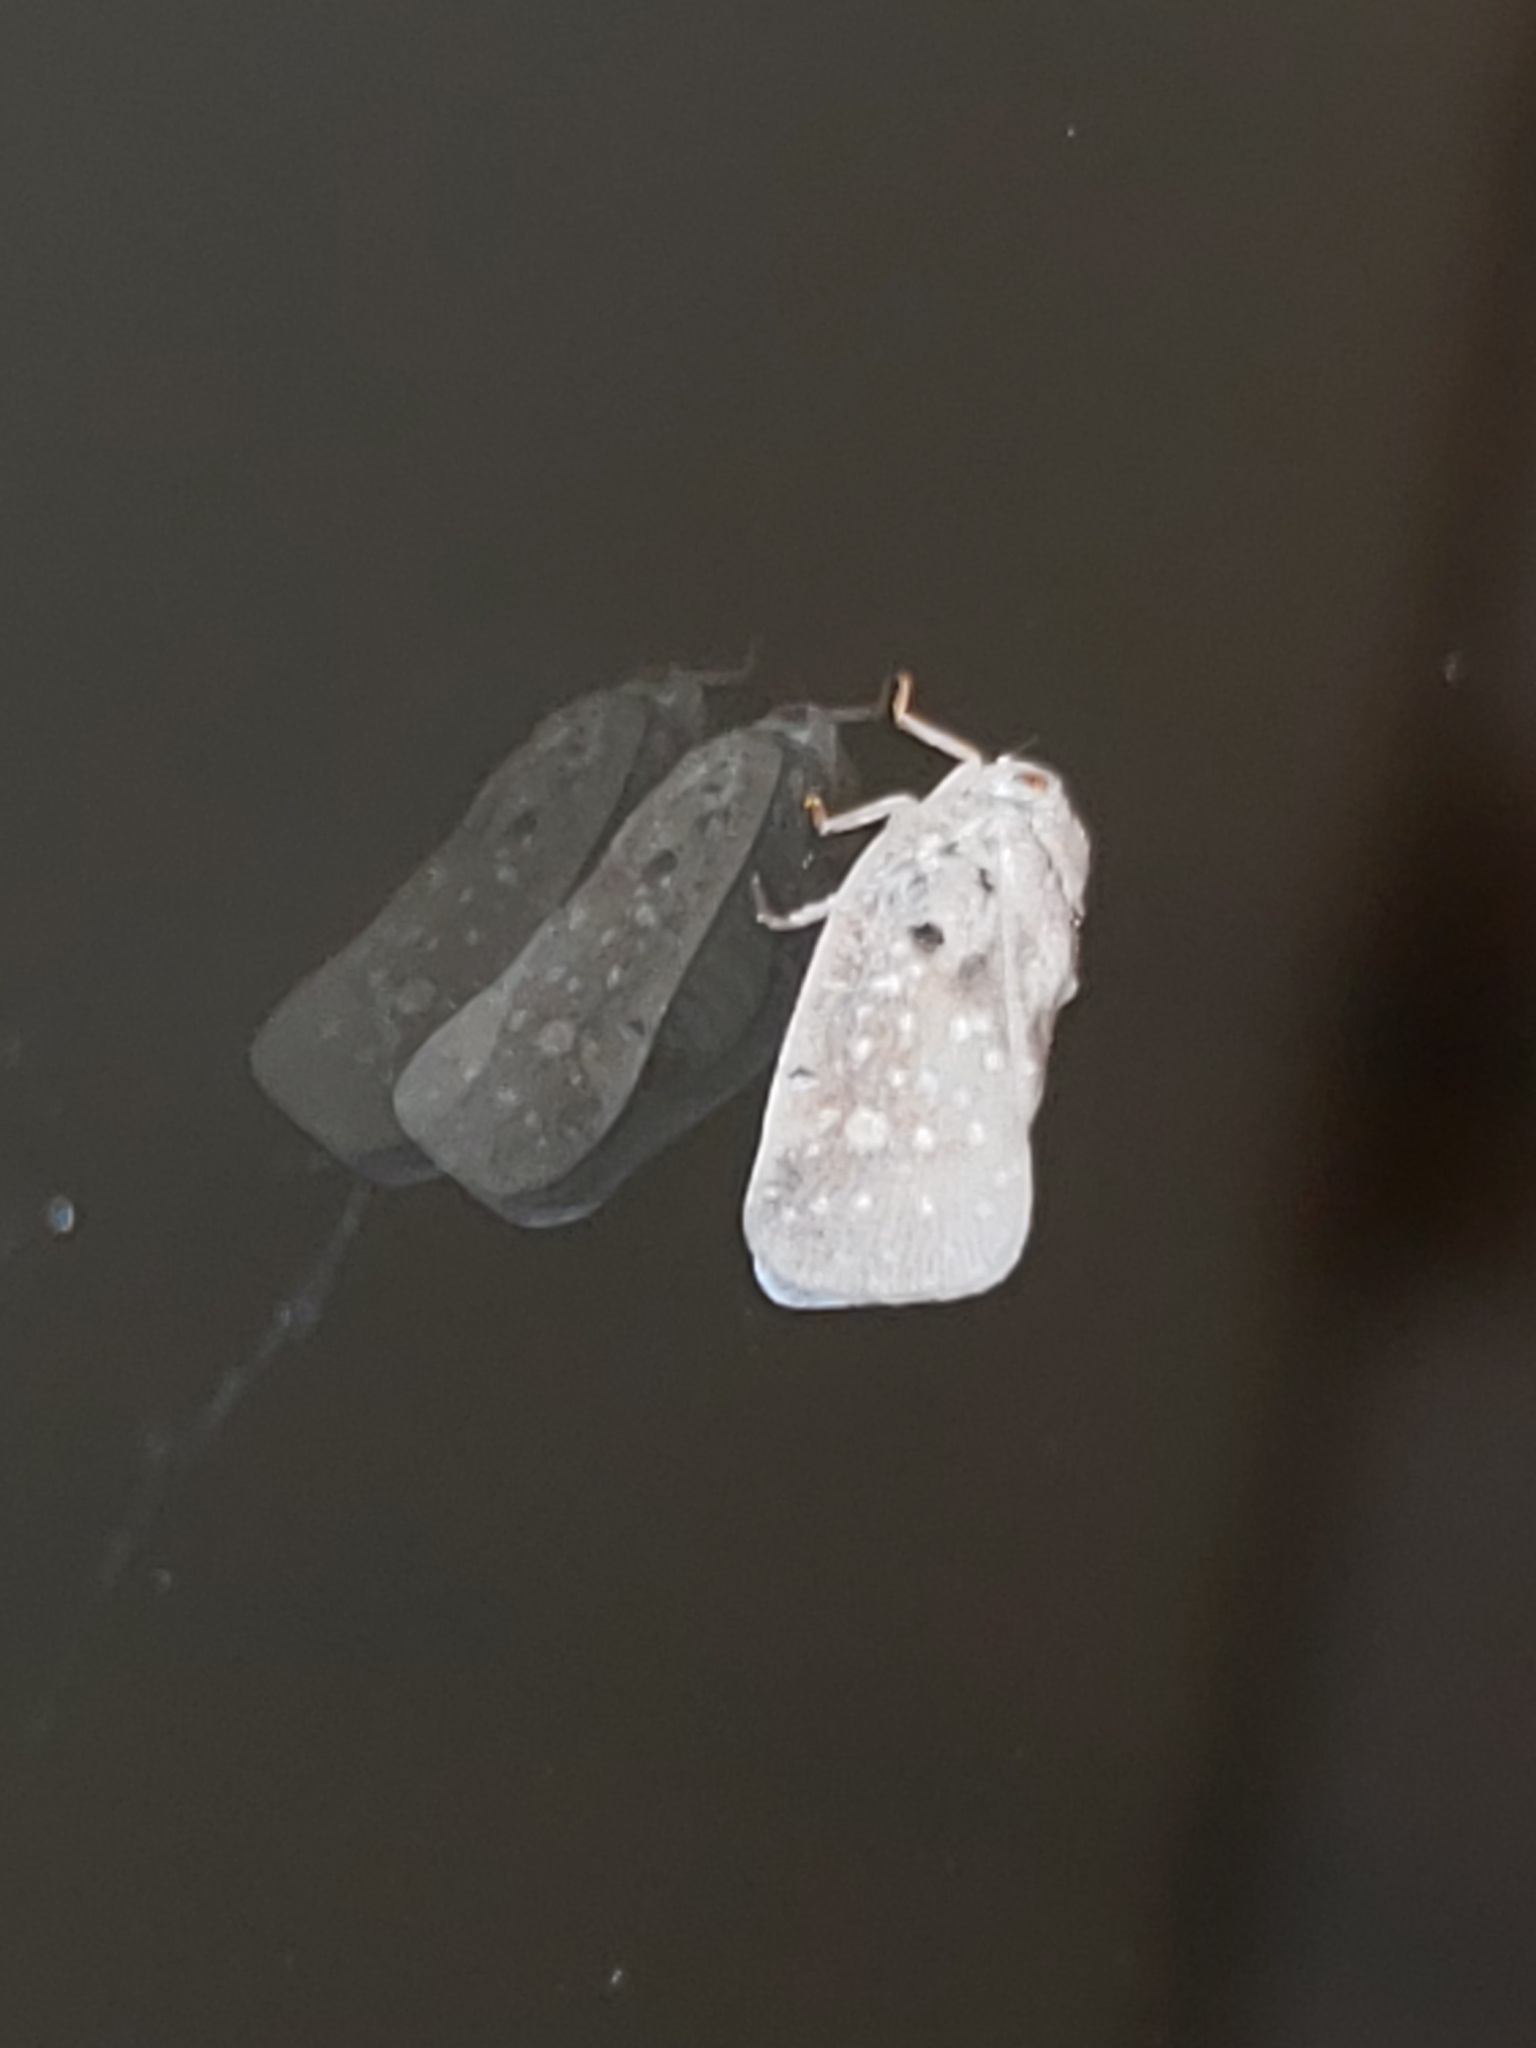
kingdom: Animalia
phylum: Arthropoda
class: Insecta
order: Hemiptera
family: Flatidae
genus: Metcalfa
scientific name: Metcalfa pruinosa
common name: Citrus flatid planthopper
